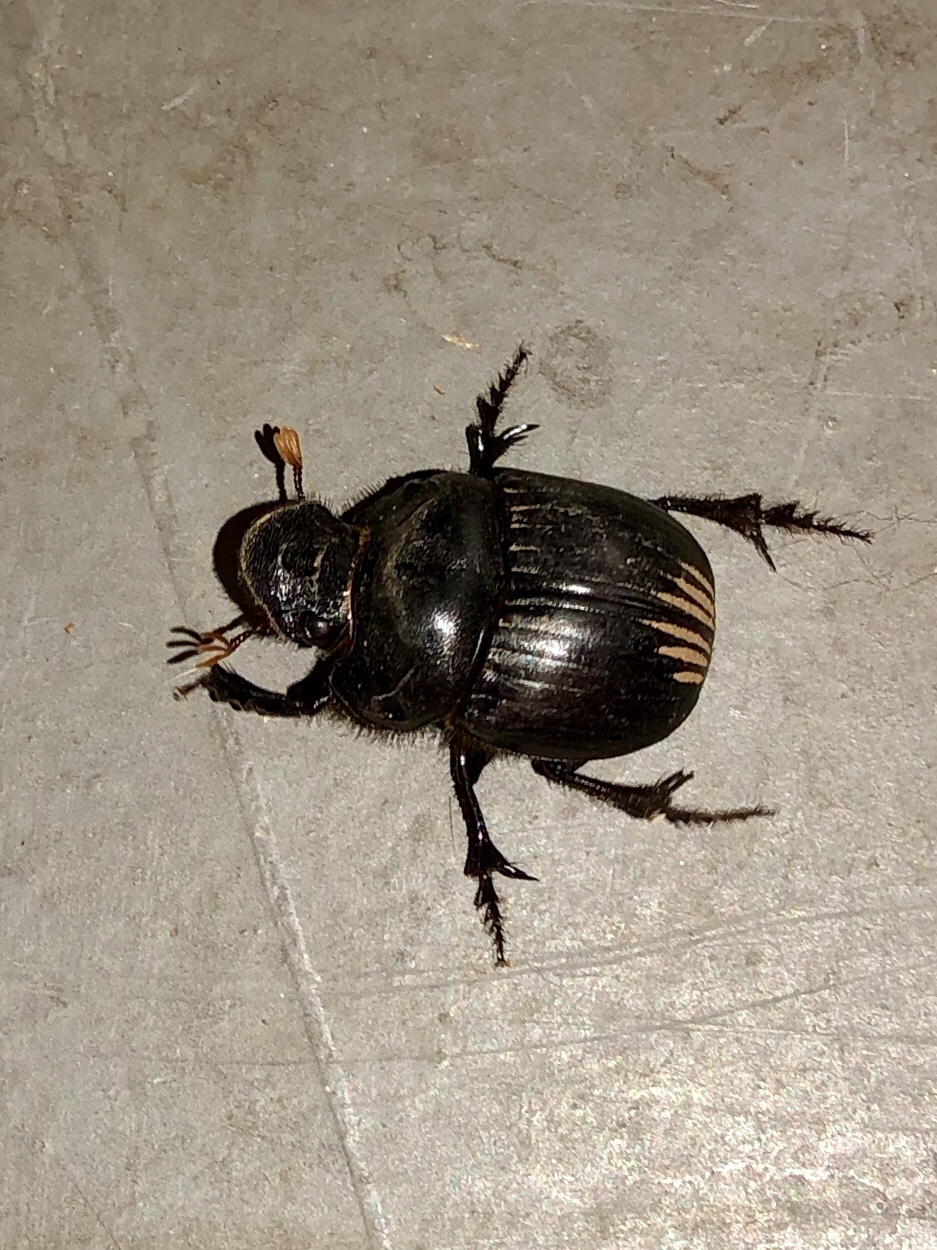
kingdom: Animalia
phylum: Arthropoda
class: Insecta
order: Coleoptera
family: Scarabaeidae
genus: Dichotomius
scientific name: Dichotomius colonicus
